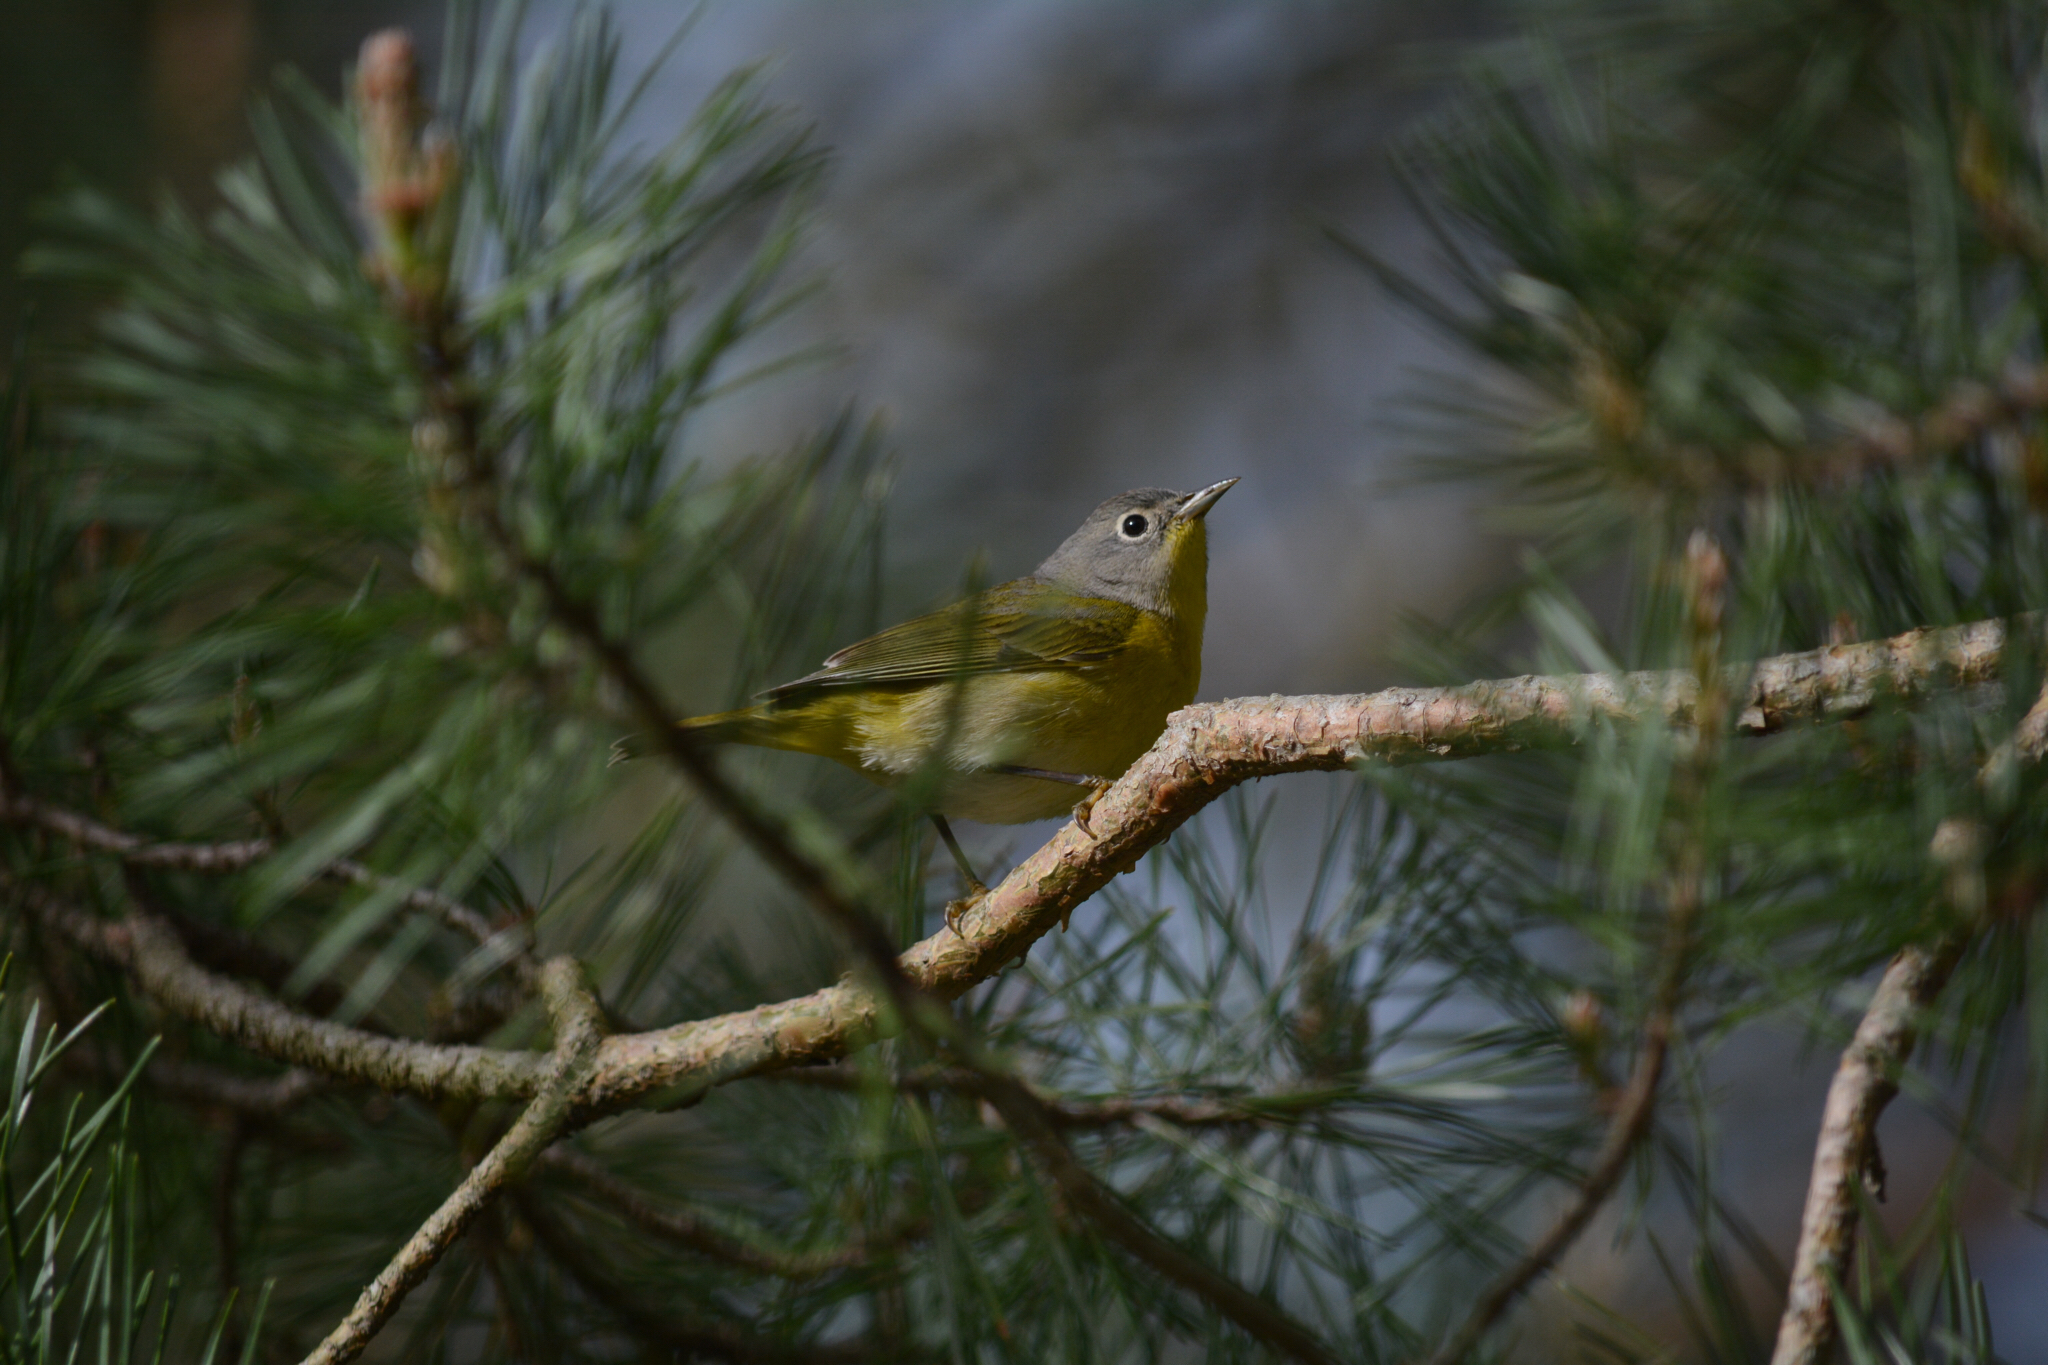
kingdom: Animalia
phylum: Chordata
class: Aves
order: Passeriformes
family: Parulidae
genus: Leiothlypis
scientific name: Leiothlypis ruficapilla
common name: Nashville warbler
